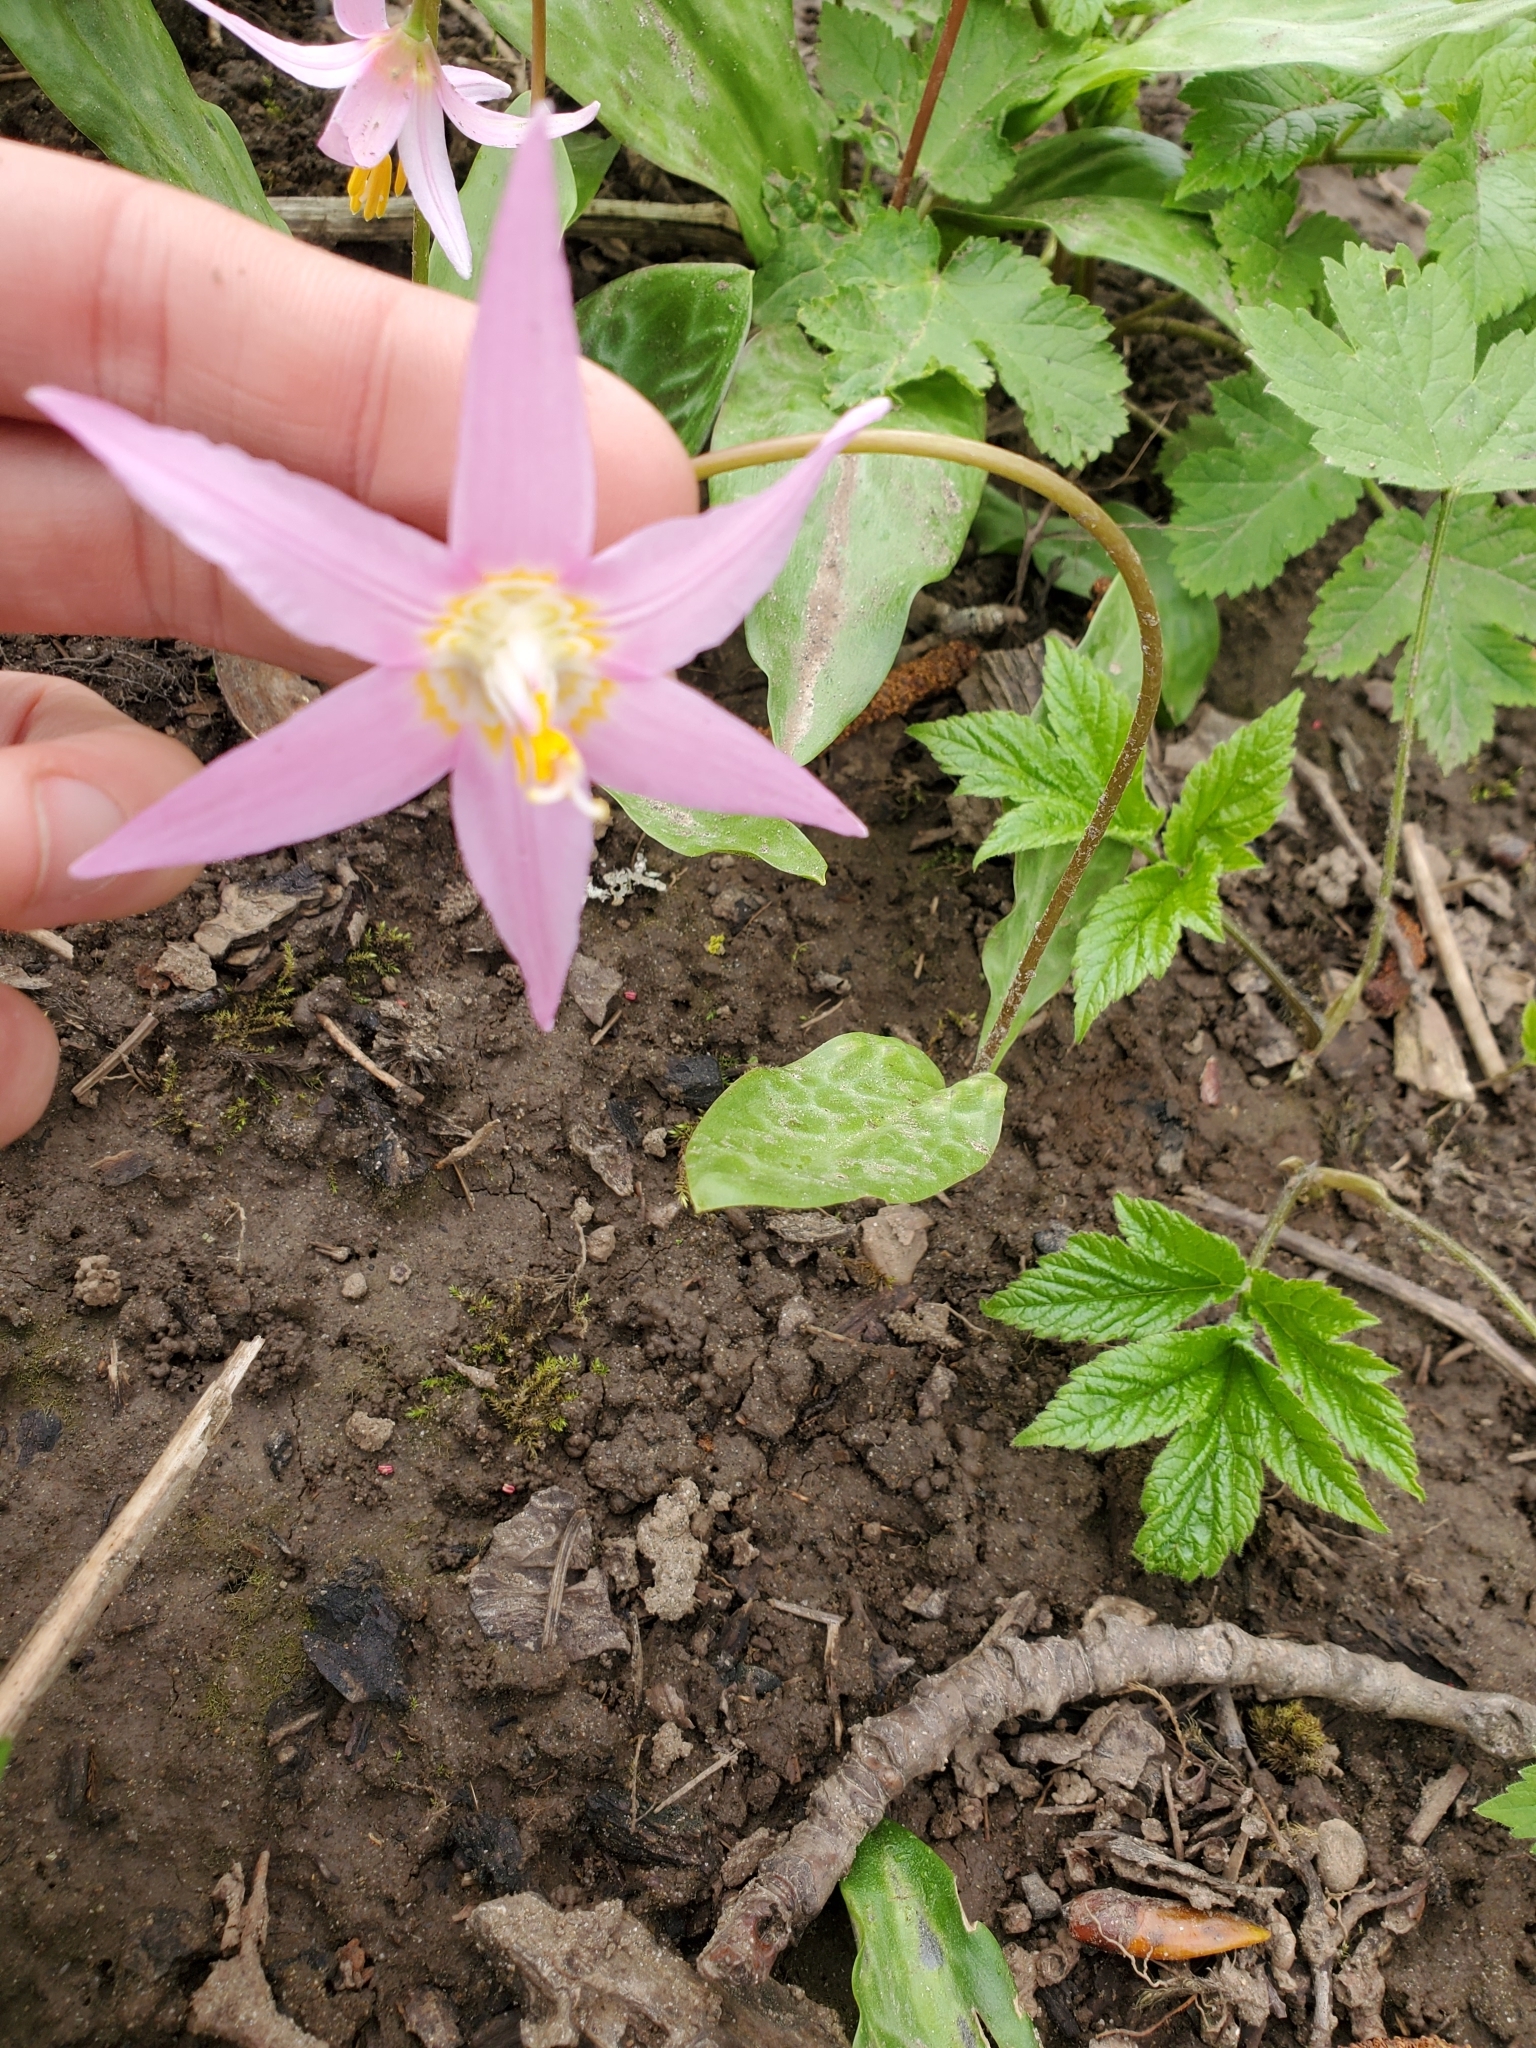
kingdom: Plantae
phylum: Tracheophyta
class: Liliopsida
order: Liliales
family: Liliaceae
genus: Erythronium
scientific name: Erythronium revolutum
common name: Pink fawn-lily
